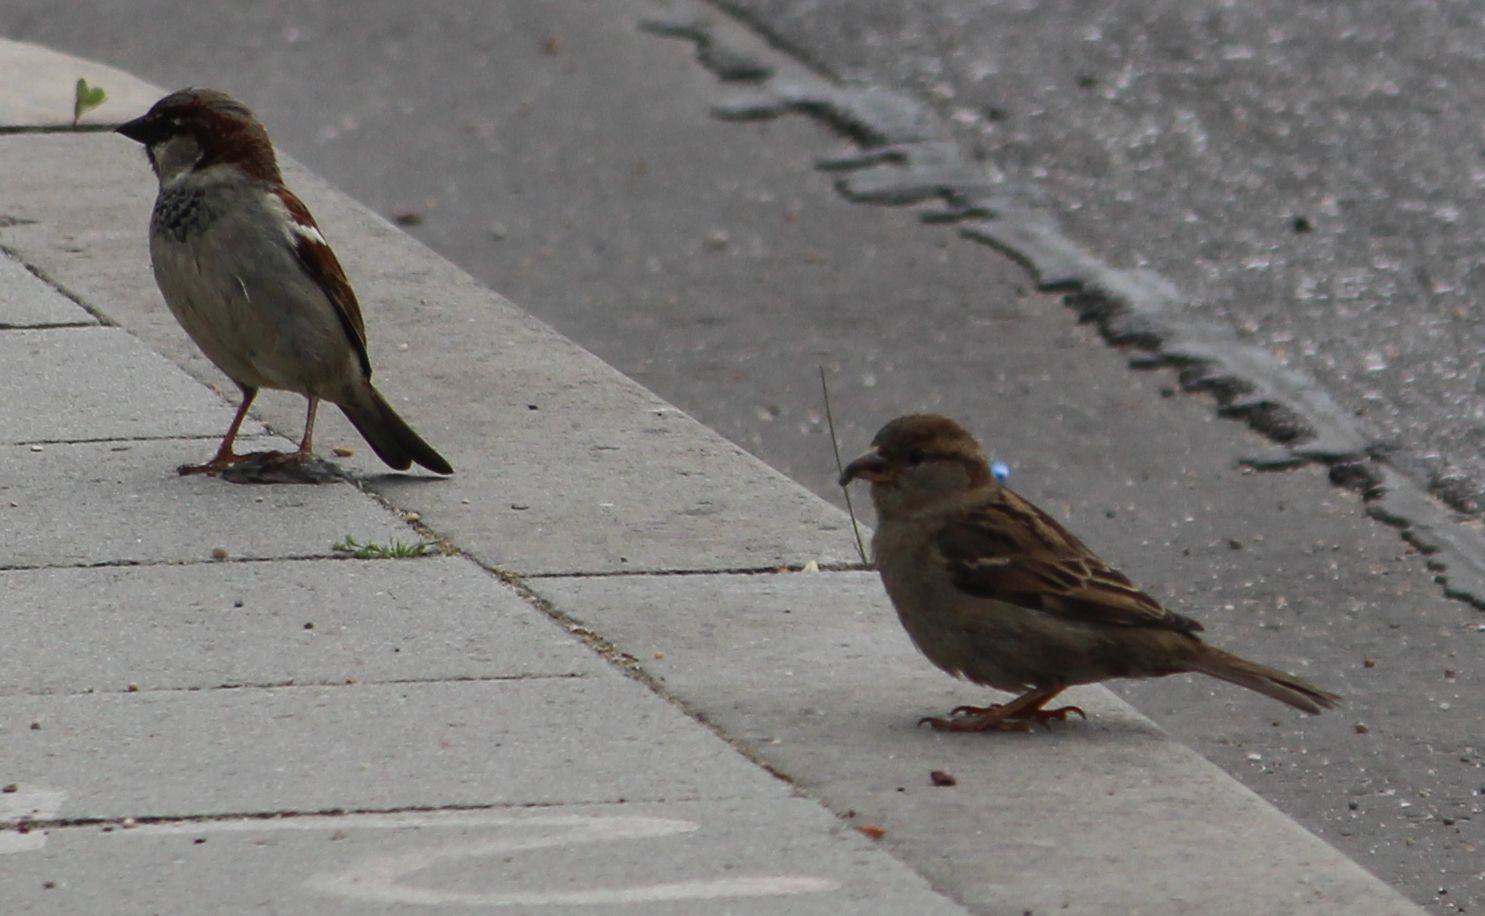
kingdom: Animalia
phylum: Chordata
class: Aves
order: Passeriformes
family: Passeridae
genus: Passer
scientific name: Passer domesticus
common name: House sparrow
